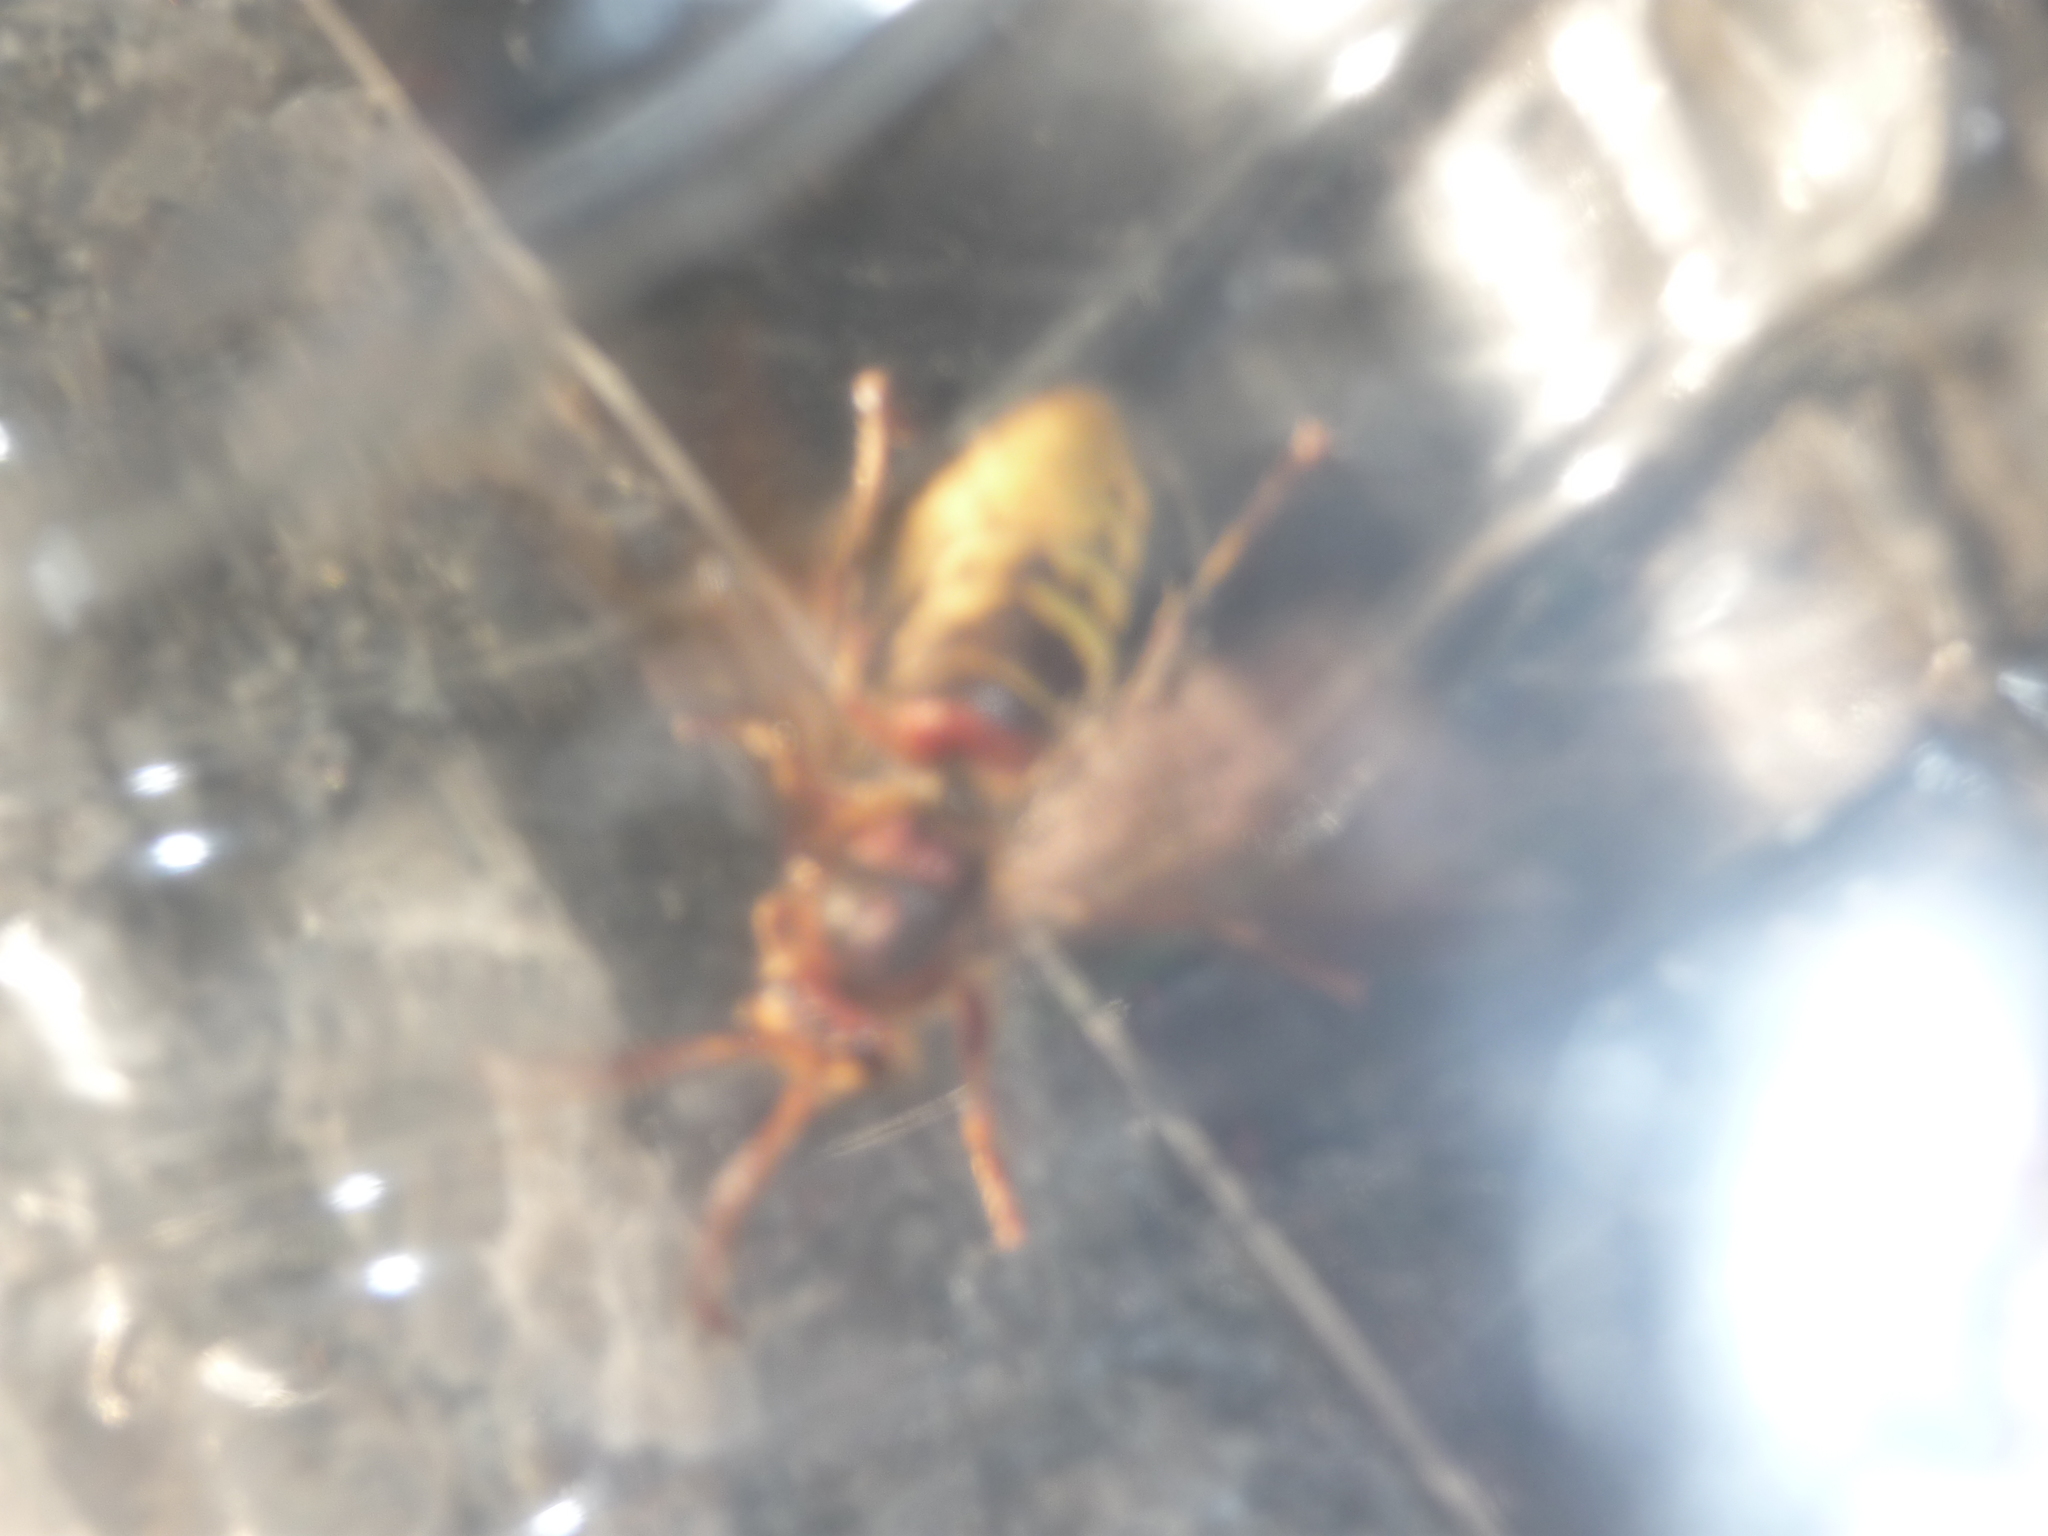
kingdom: Animalia
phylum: Arthropoda
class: Insecta
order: Hymenoptera
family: Vespidae
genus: Vespa
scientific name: Vespa crabro
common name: Hornet
